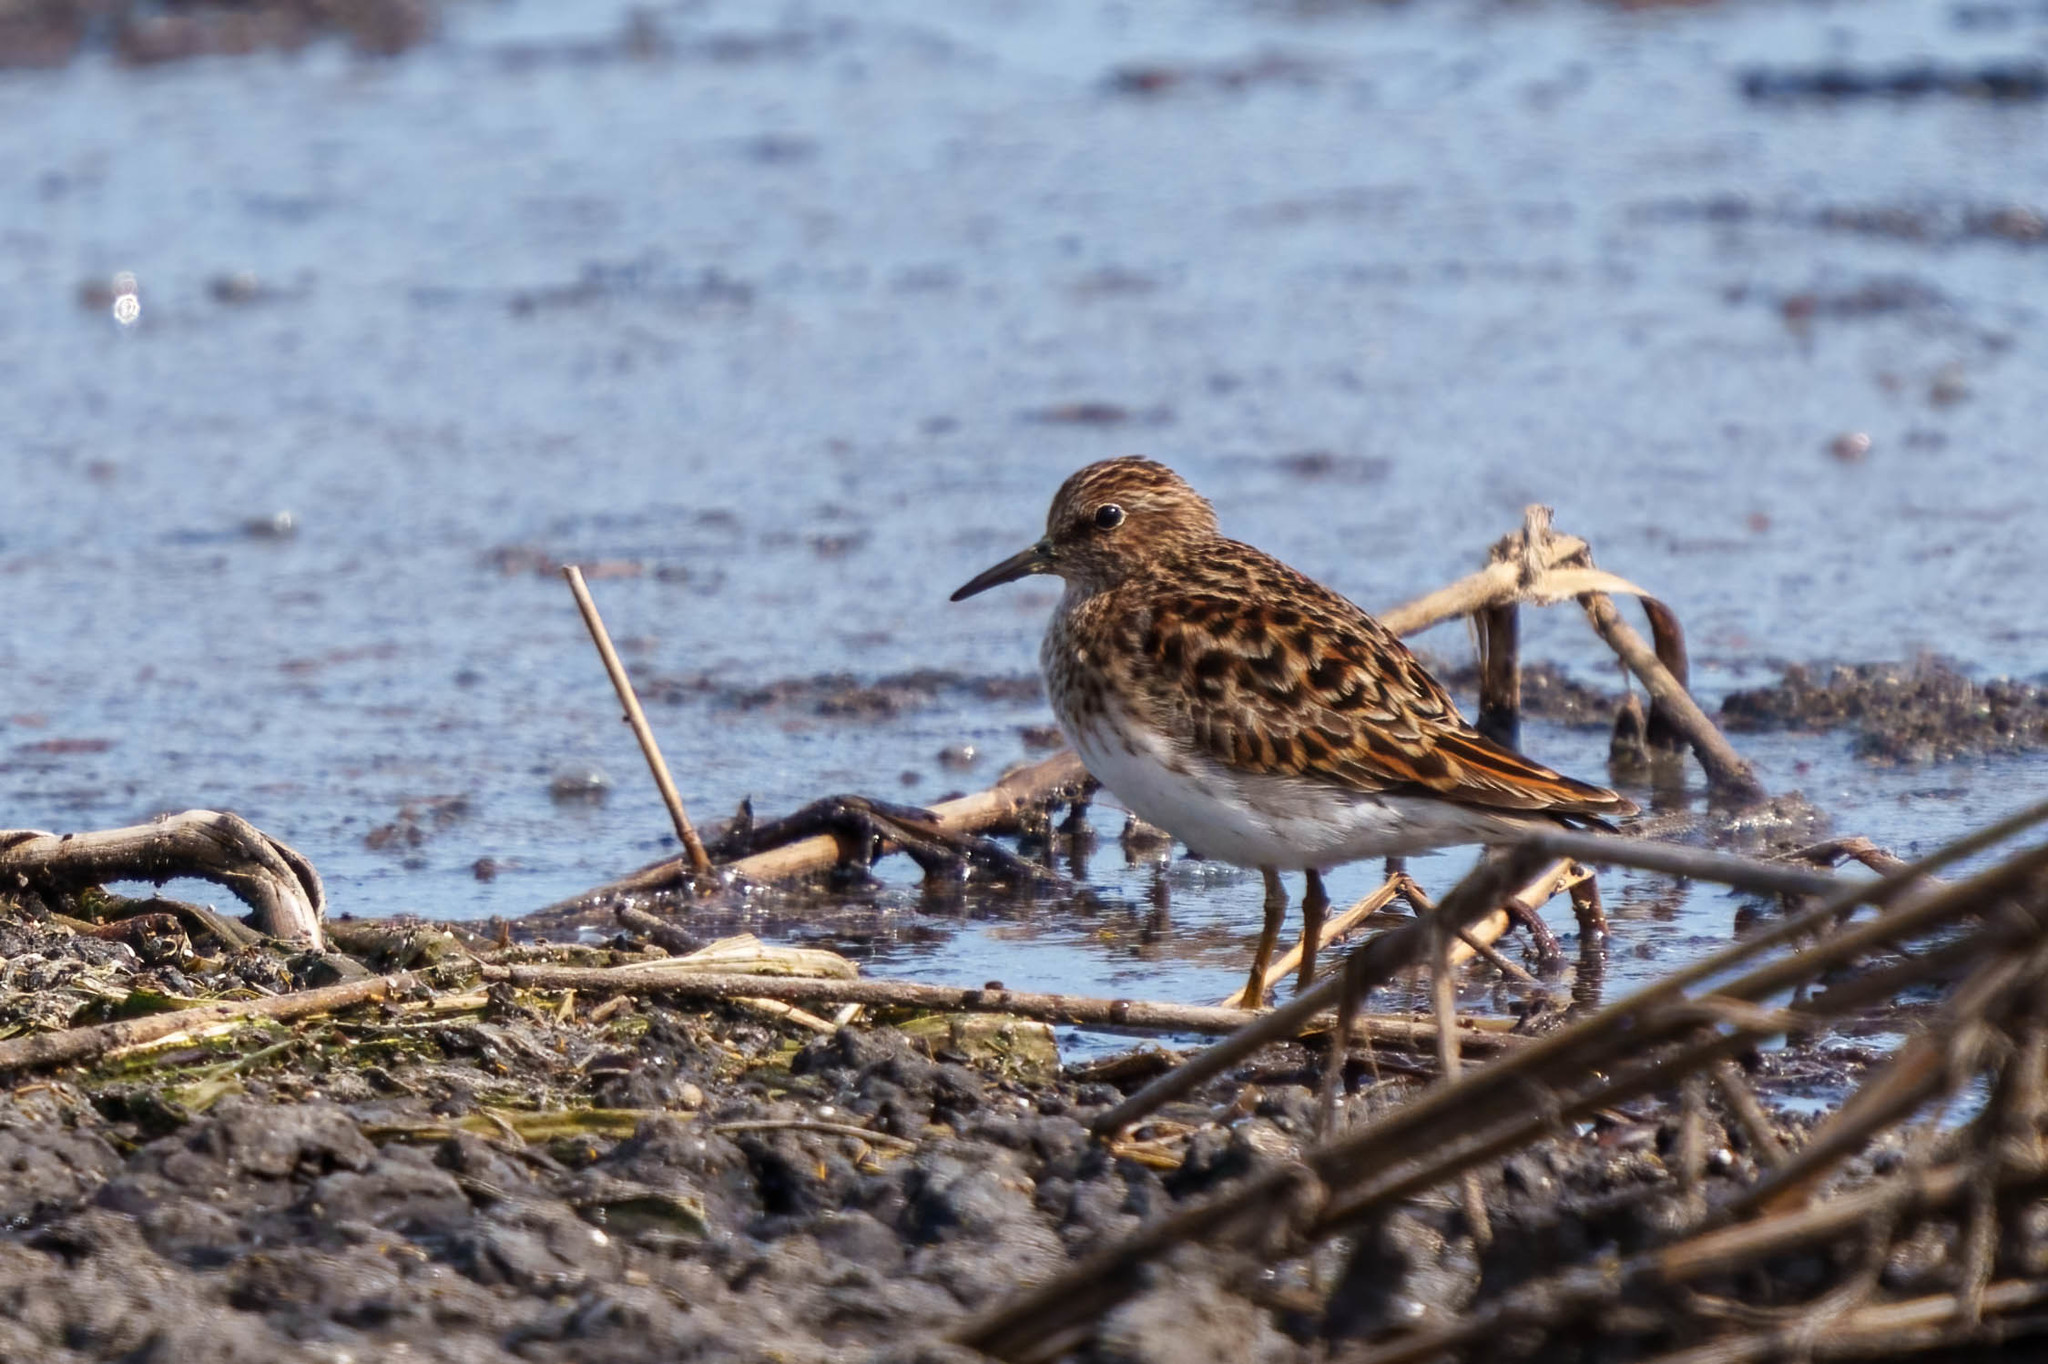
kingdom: Animalia
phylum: Chordata
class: Aves
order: Charadriiformes
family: Scolopacidae
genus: Calidris
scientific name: Calidris minutilla
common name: Least sandpiper
